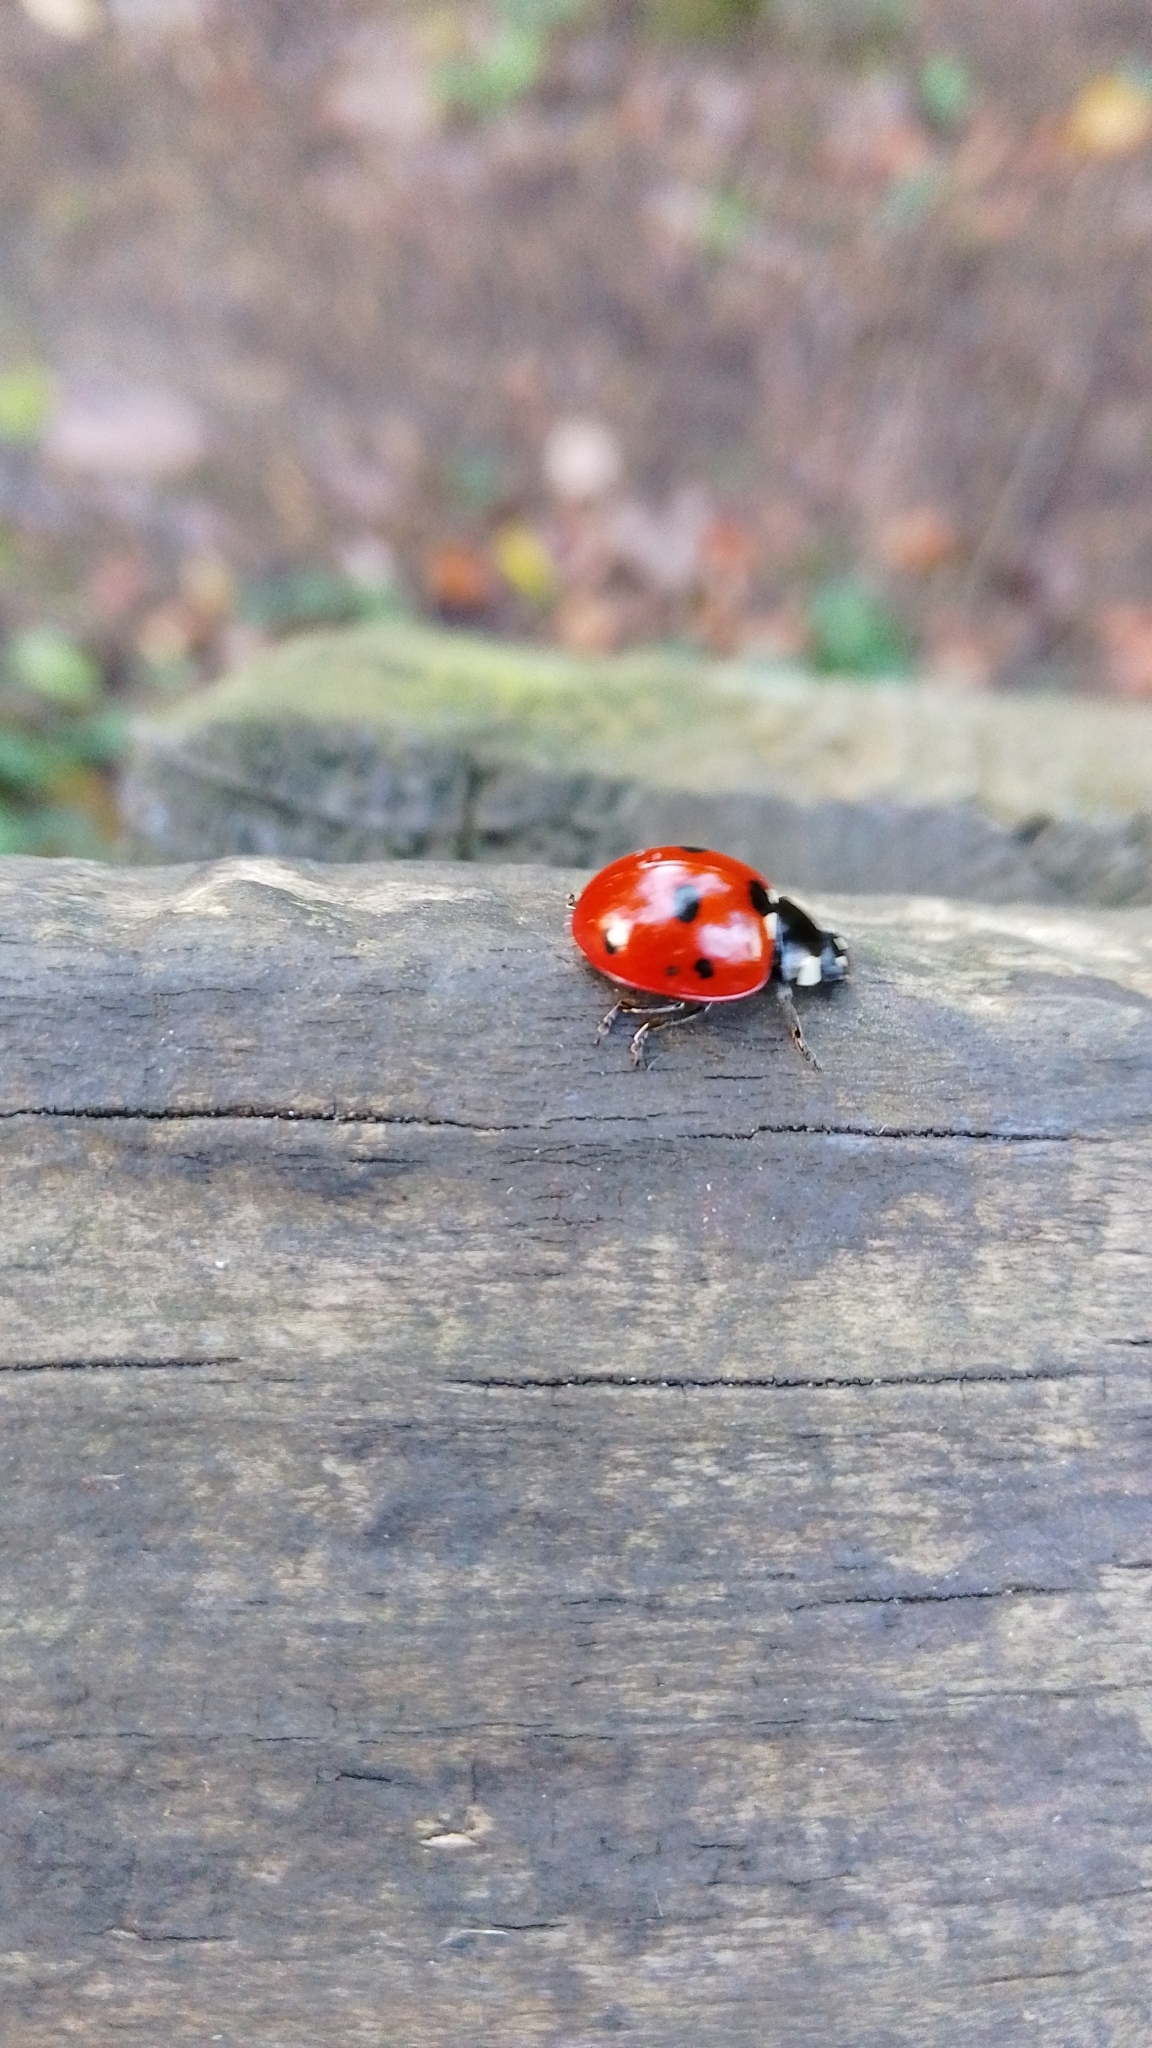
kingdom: Animalia
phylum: Arthropoda
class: Insecta
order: Coleoptera
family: Coccinellidae
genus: Coccinella
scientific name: Coccinella septempunctata
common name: Sevenspotted lady beetle
